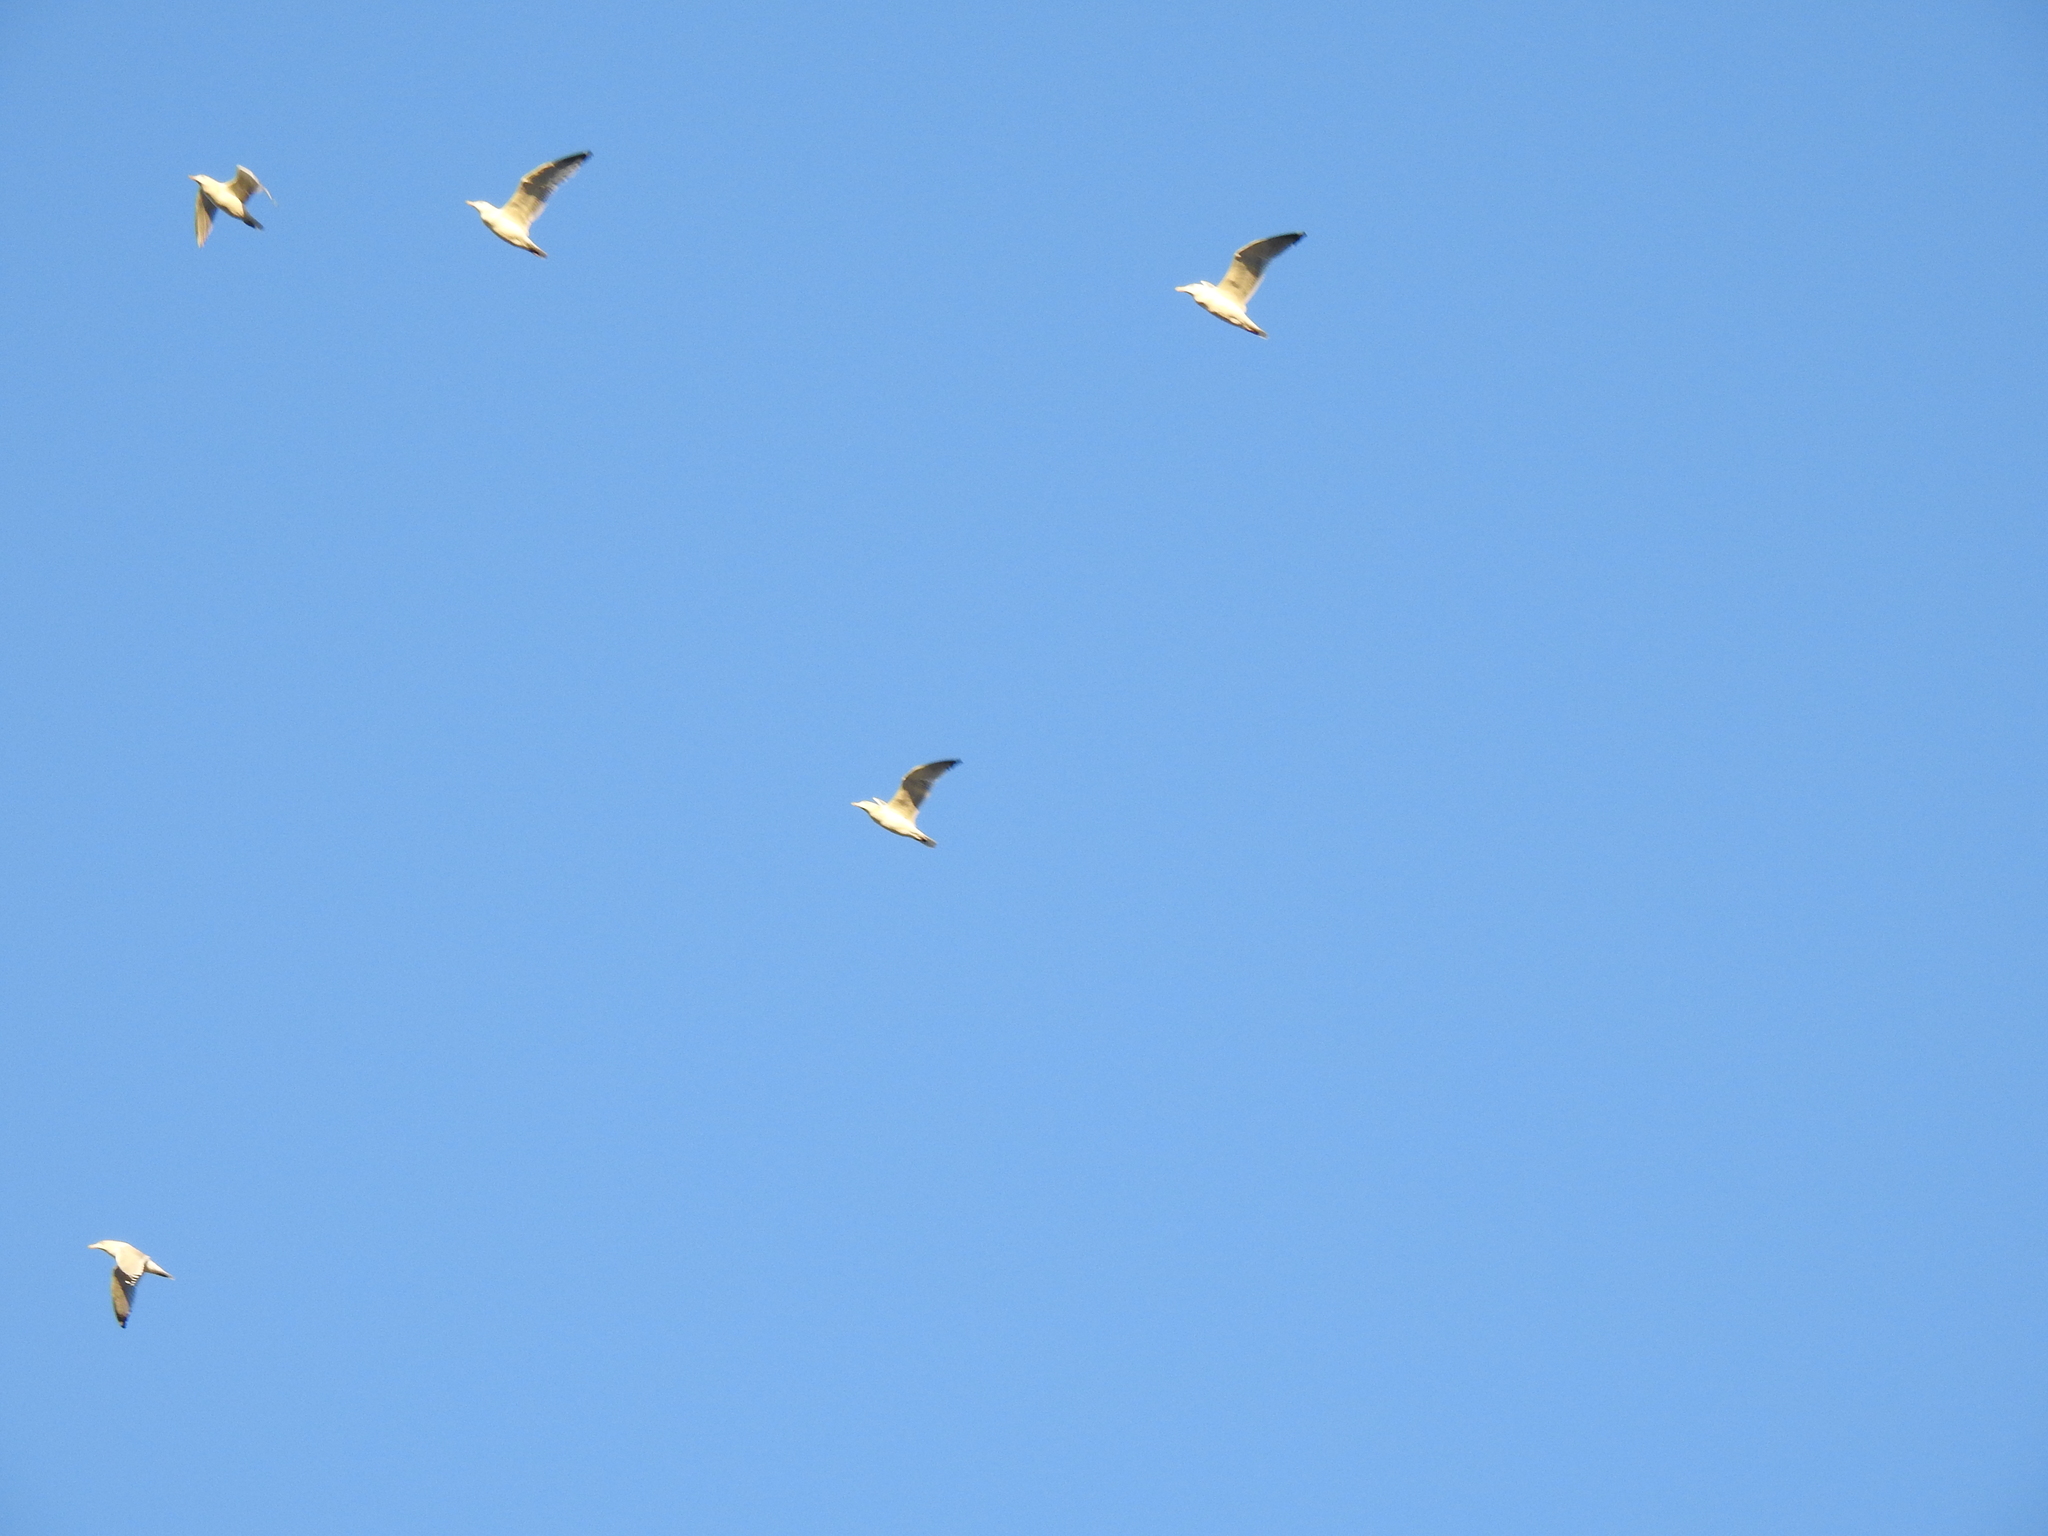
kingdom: Animalia
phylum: Chordata
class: Aves
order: Charadriiformes
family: Laridae
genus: Larus
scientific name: Larus
